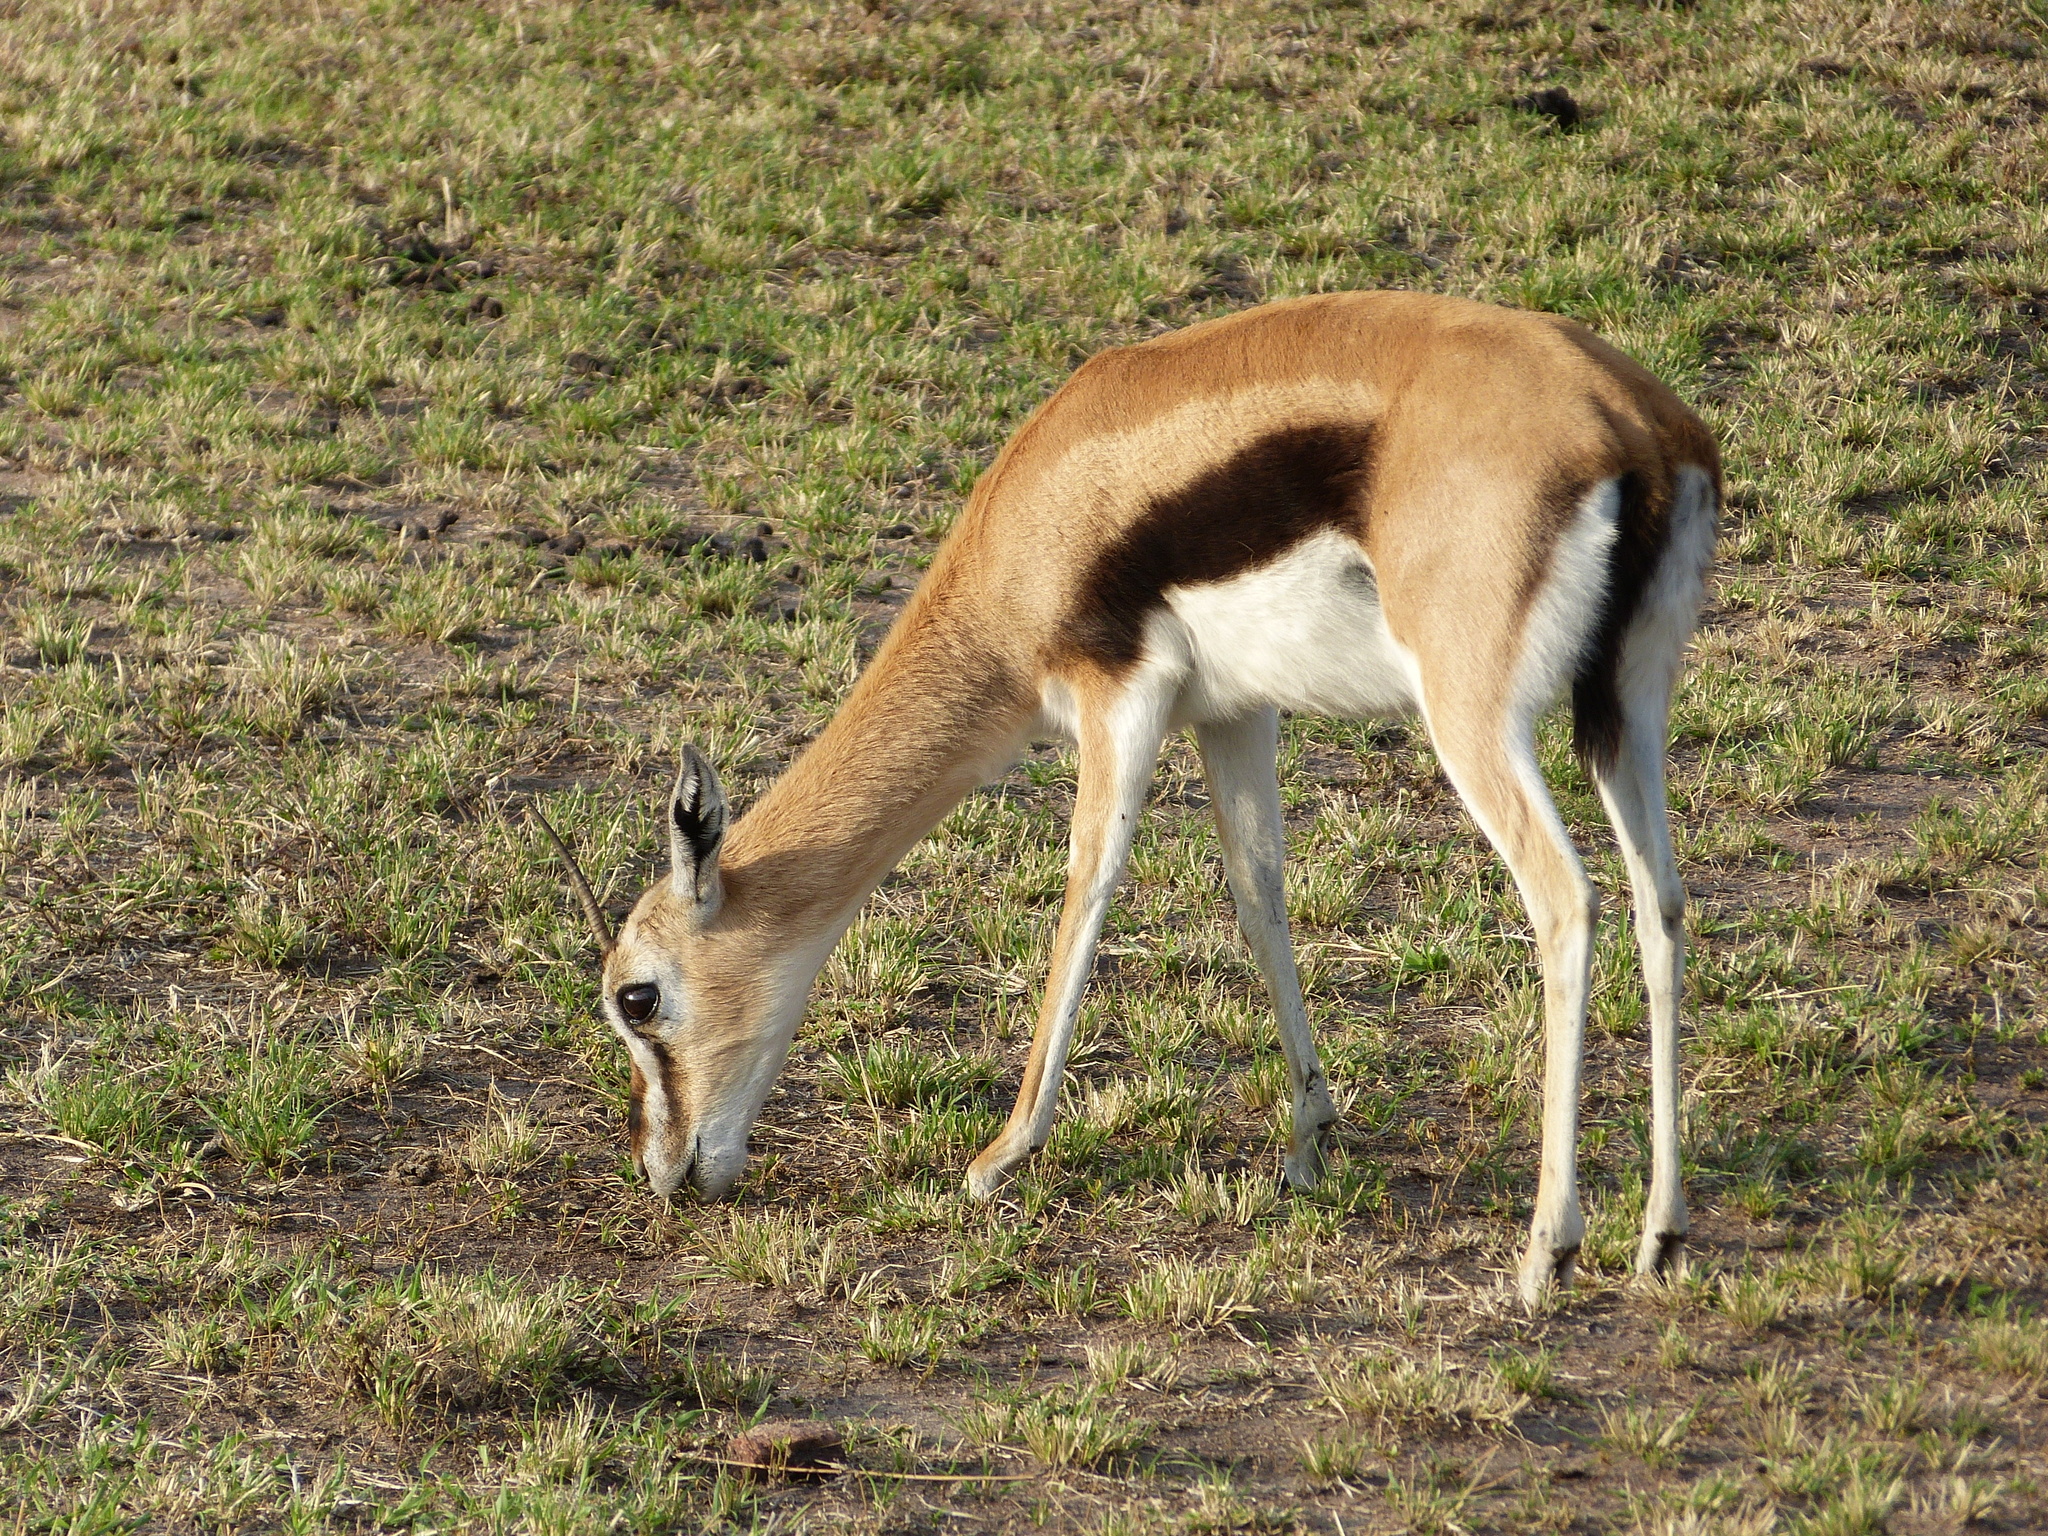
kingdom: Animalia
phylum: Chordata
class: Mammalia
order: Artiodactyla
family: Bovidae
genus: Eudorcas
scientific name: Eudorcas thomsonii
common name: Thomson's gazelle
